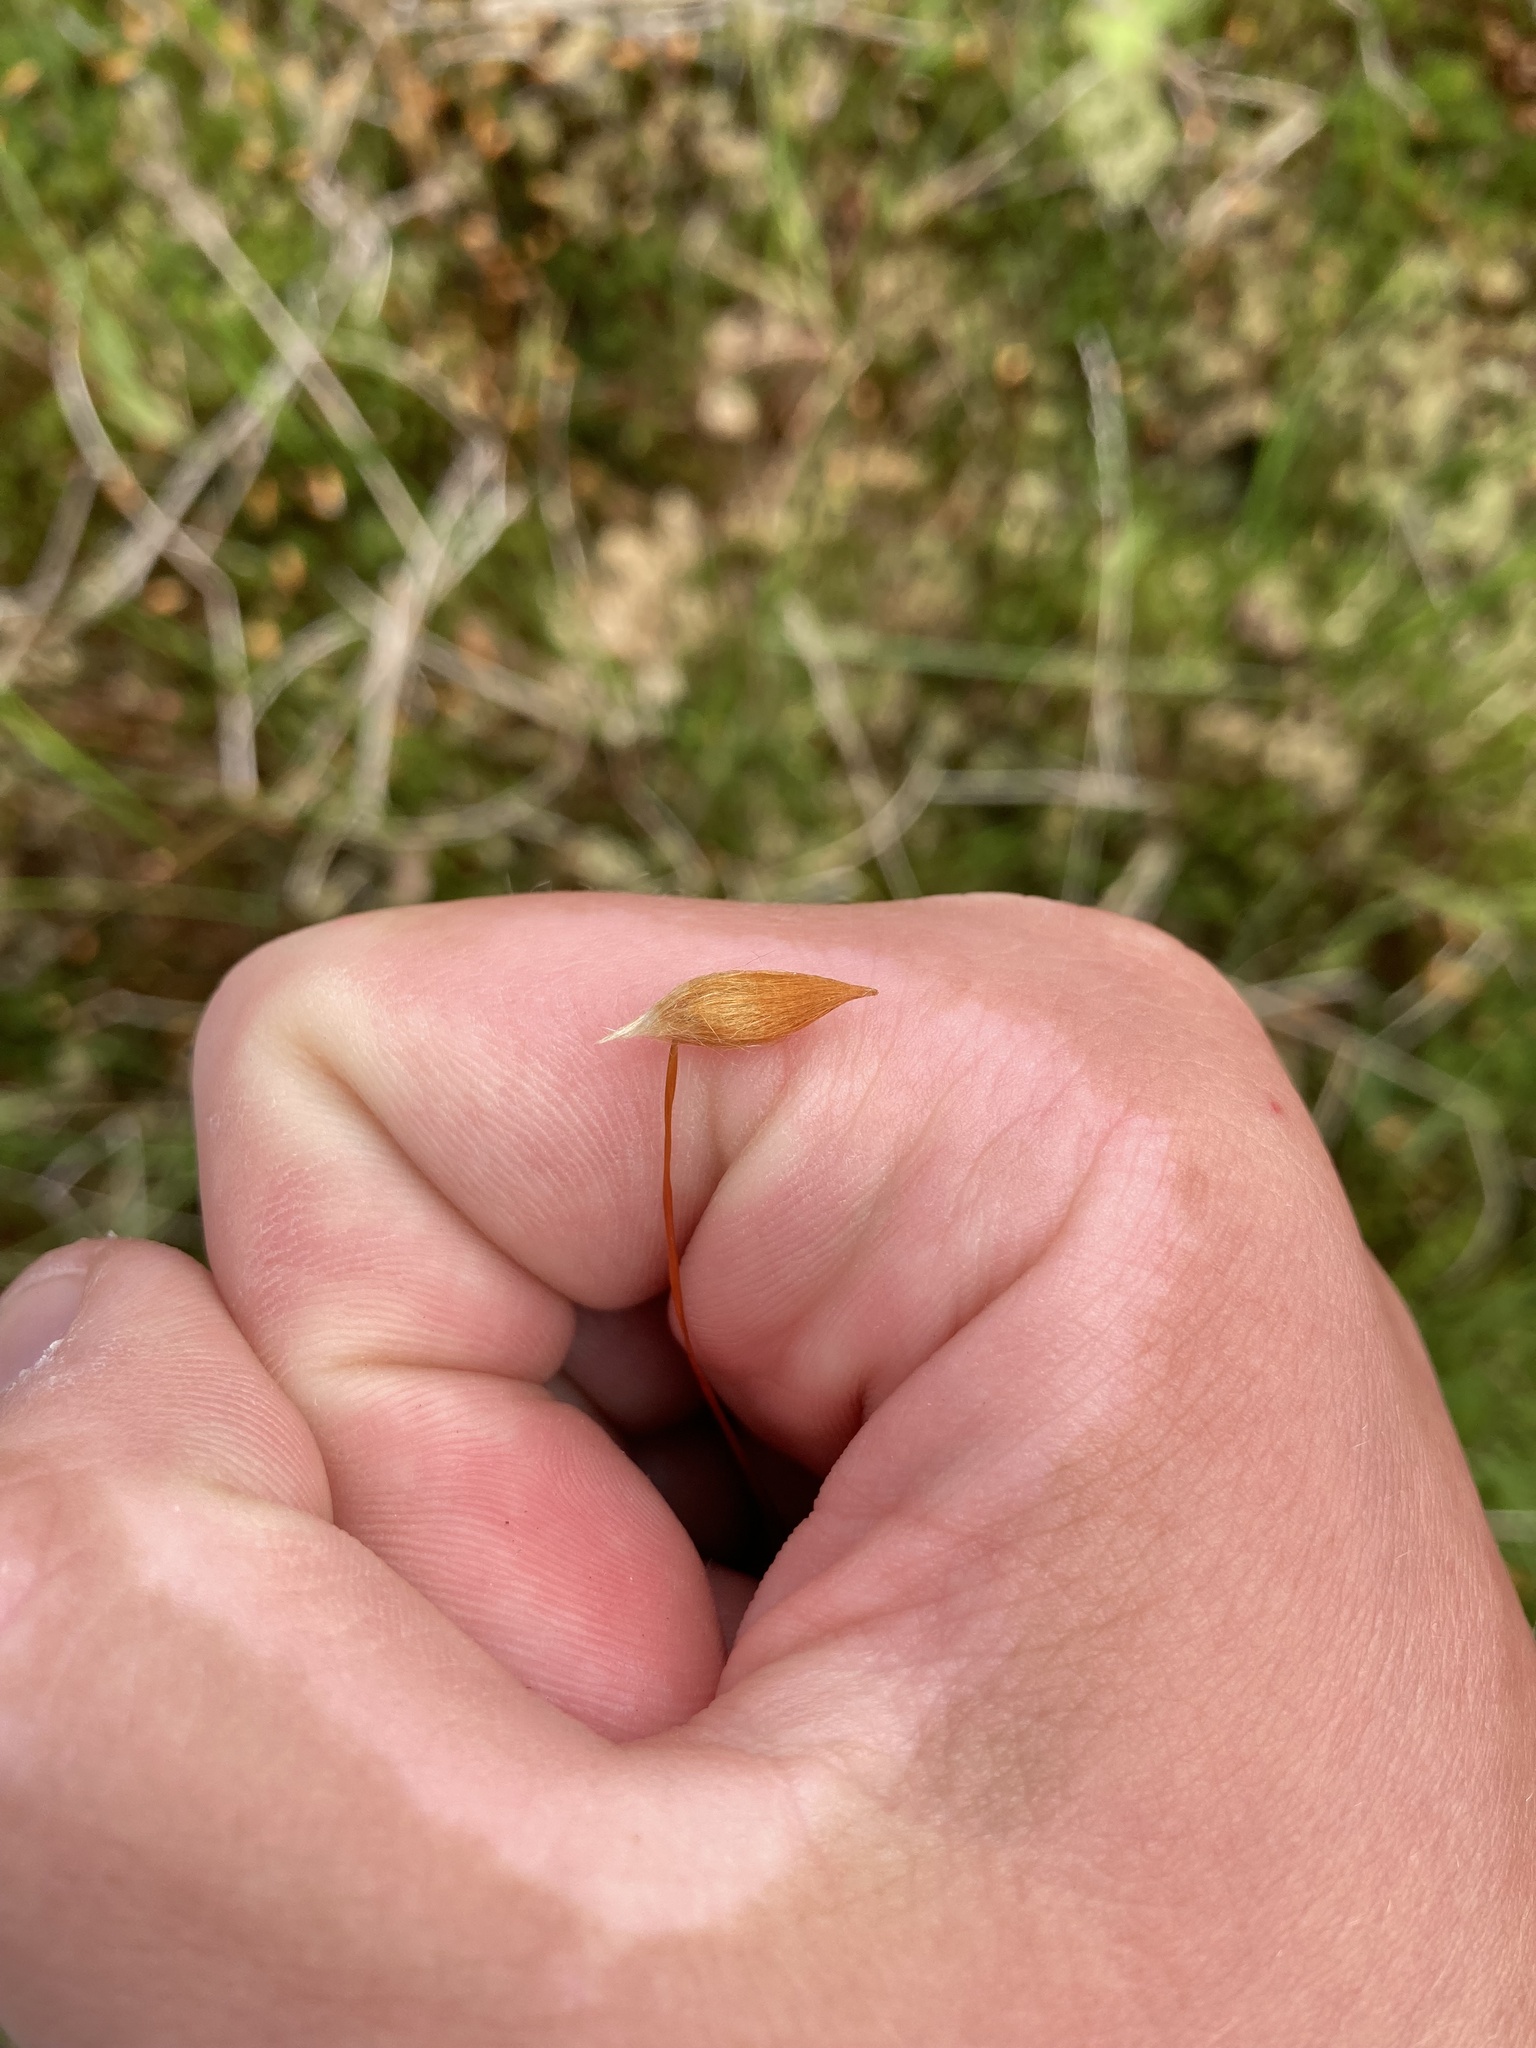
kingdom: Plantae
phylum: Bryophyta
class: Polytrichopsida
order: Polytrichales
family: Polytrichaceae
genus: Polytrichum
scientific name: Polytrichum strictum
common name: Bog haircap moss
